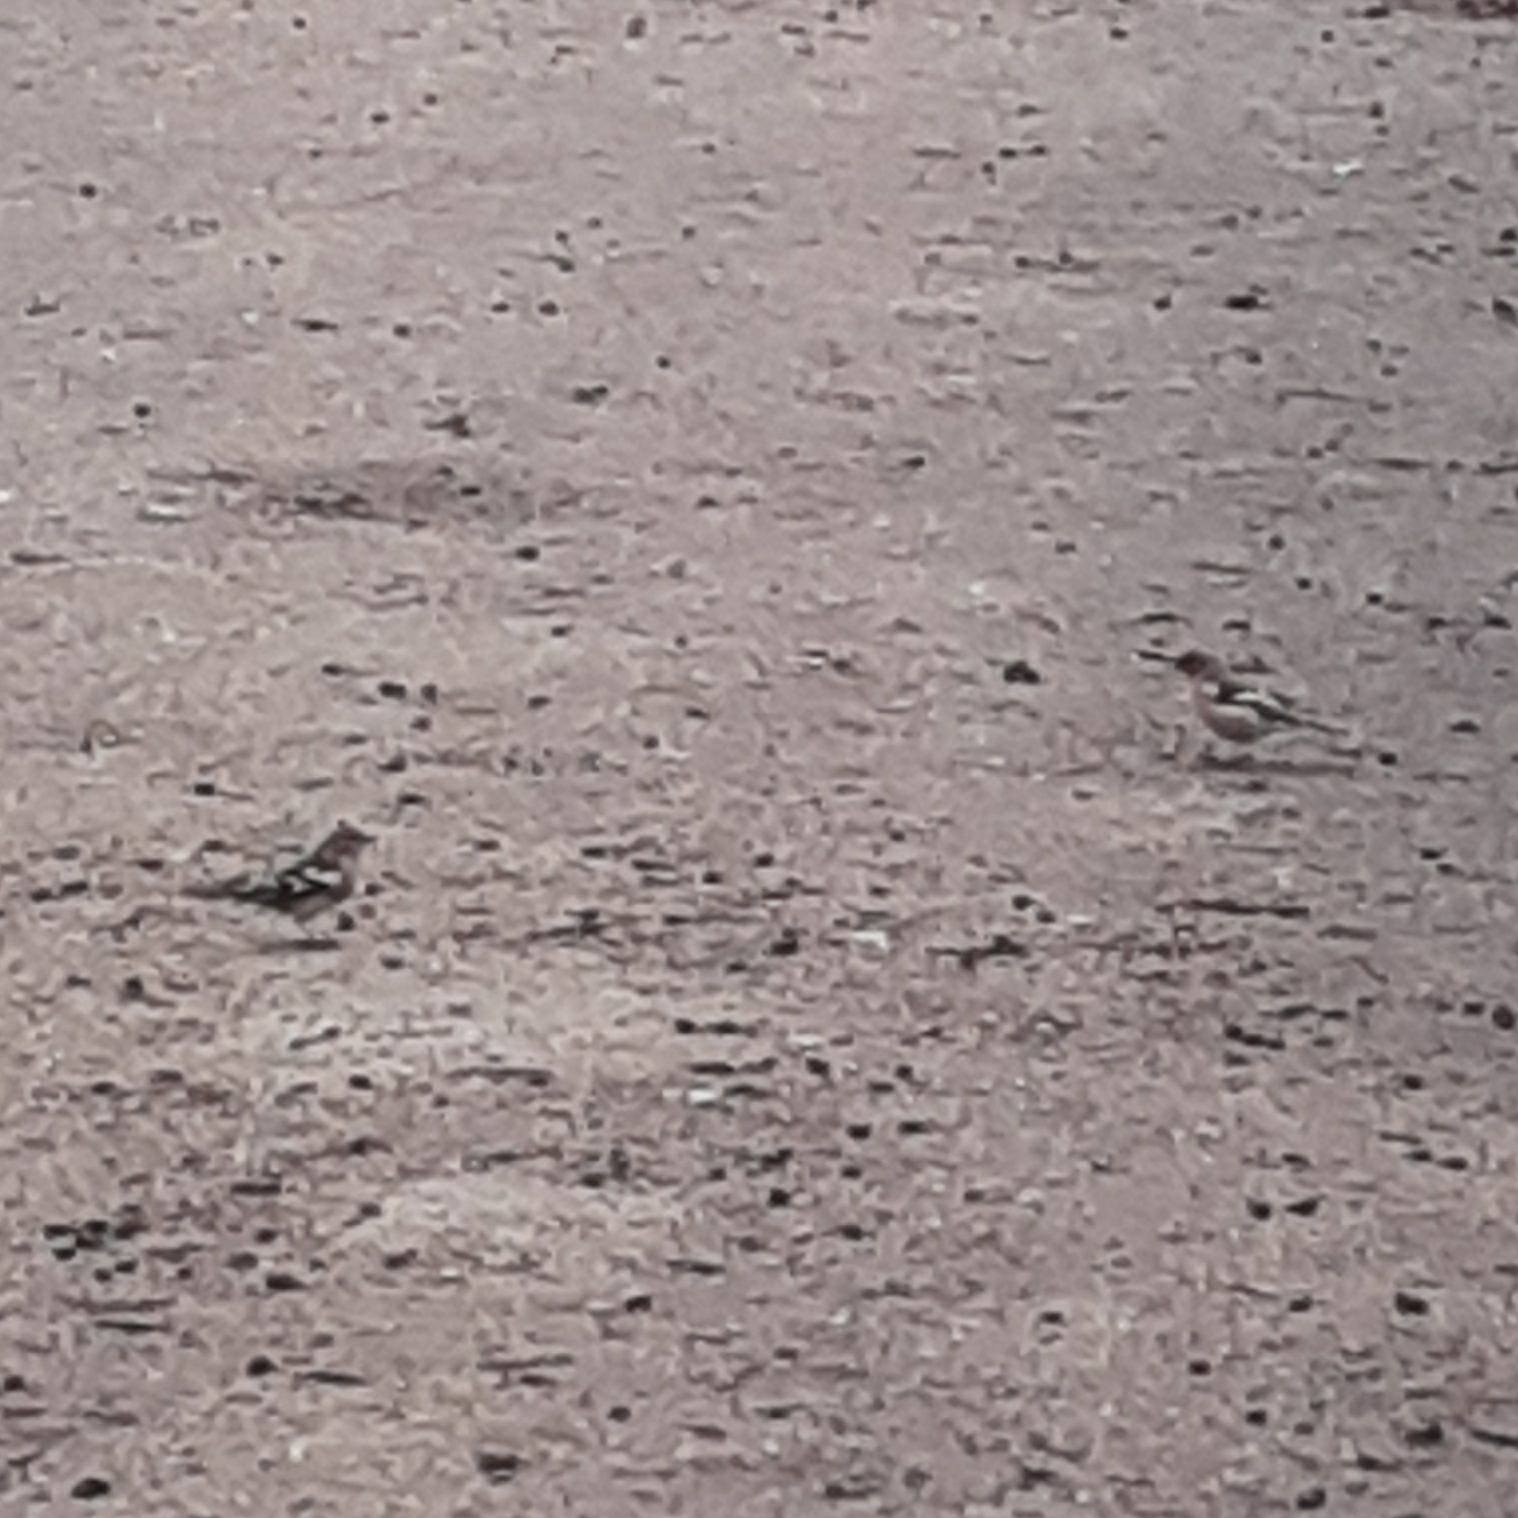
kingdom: Animalia
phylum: Chordata
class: Aves
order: Passeriformes
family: Fringillidae
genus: Fringilla
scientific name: Fringilla coelebs
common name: Common chaffinch
